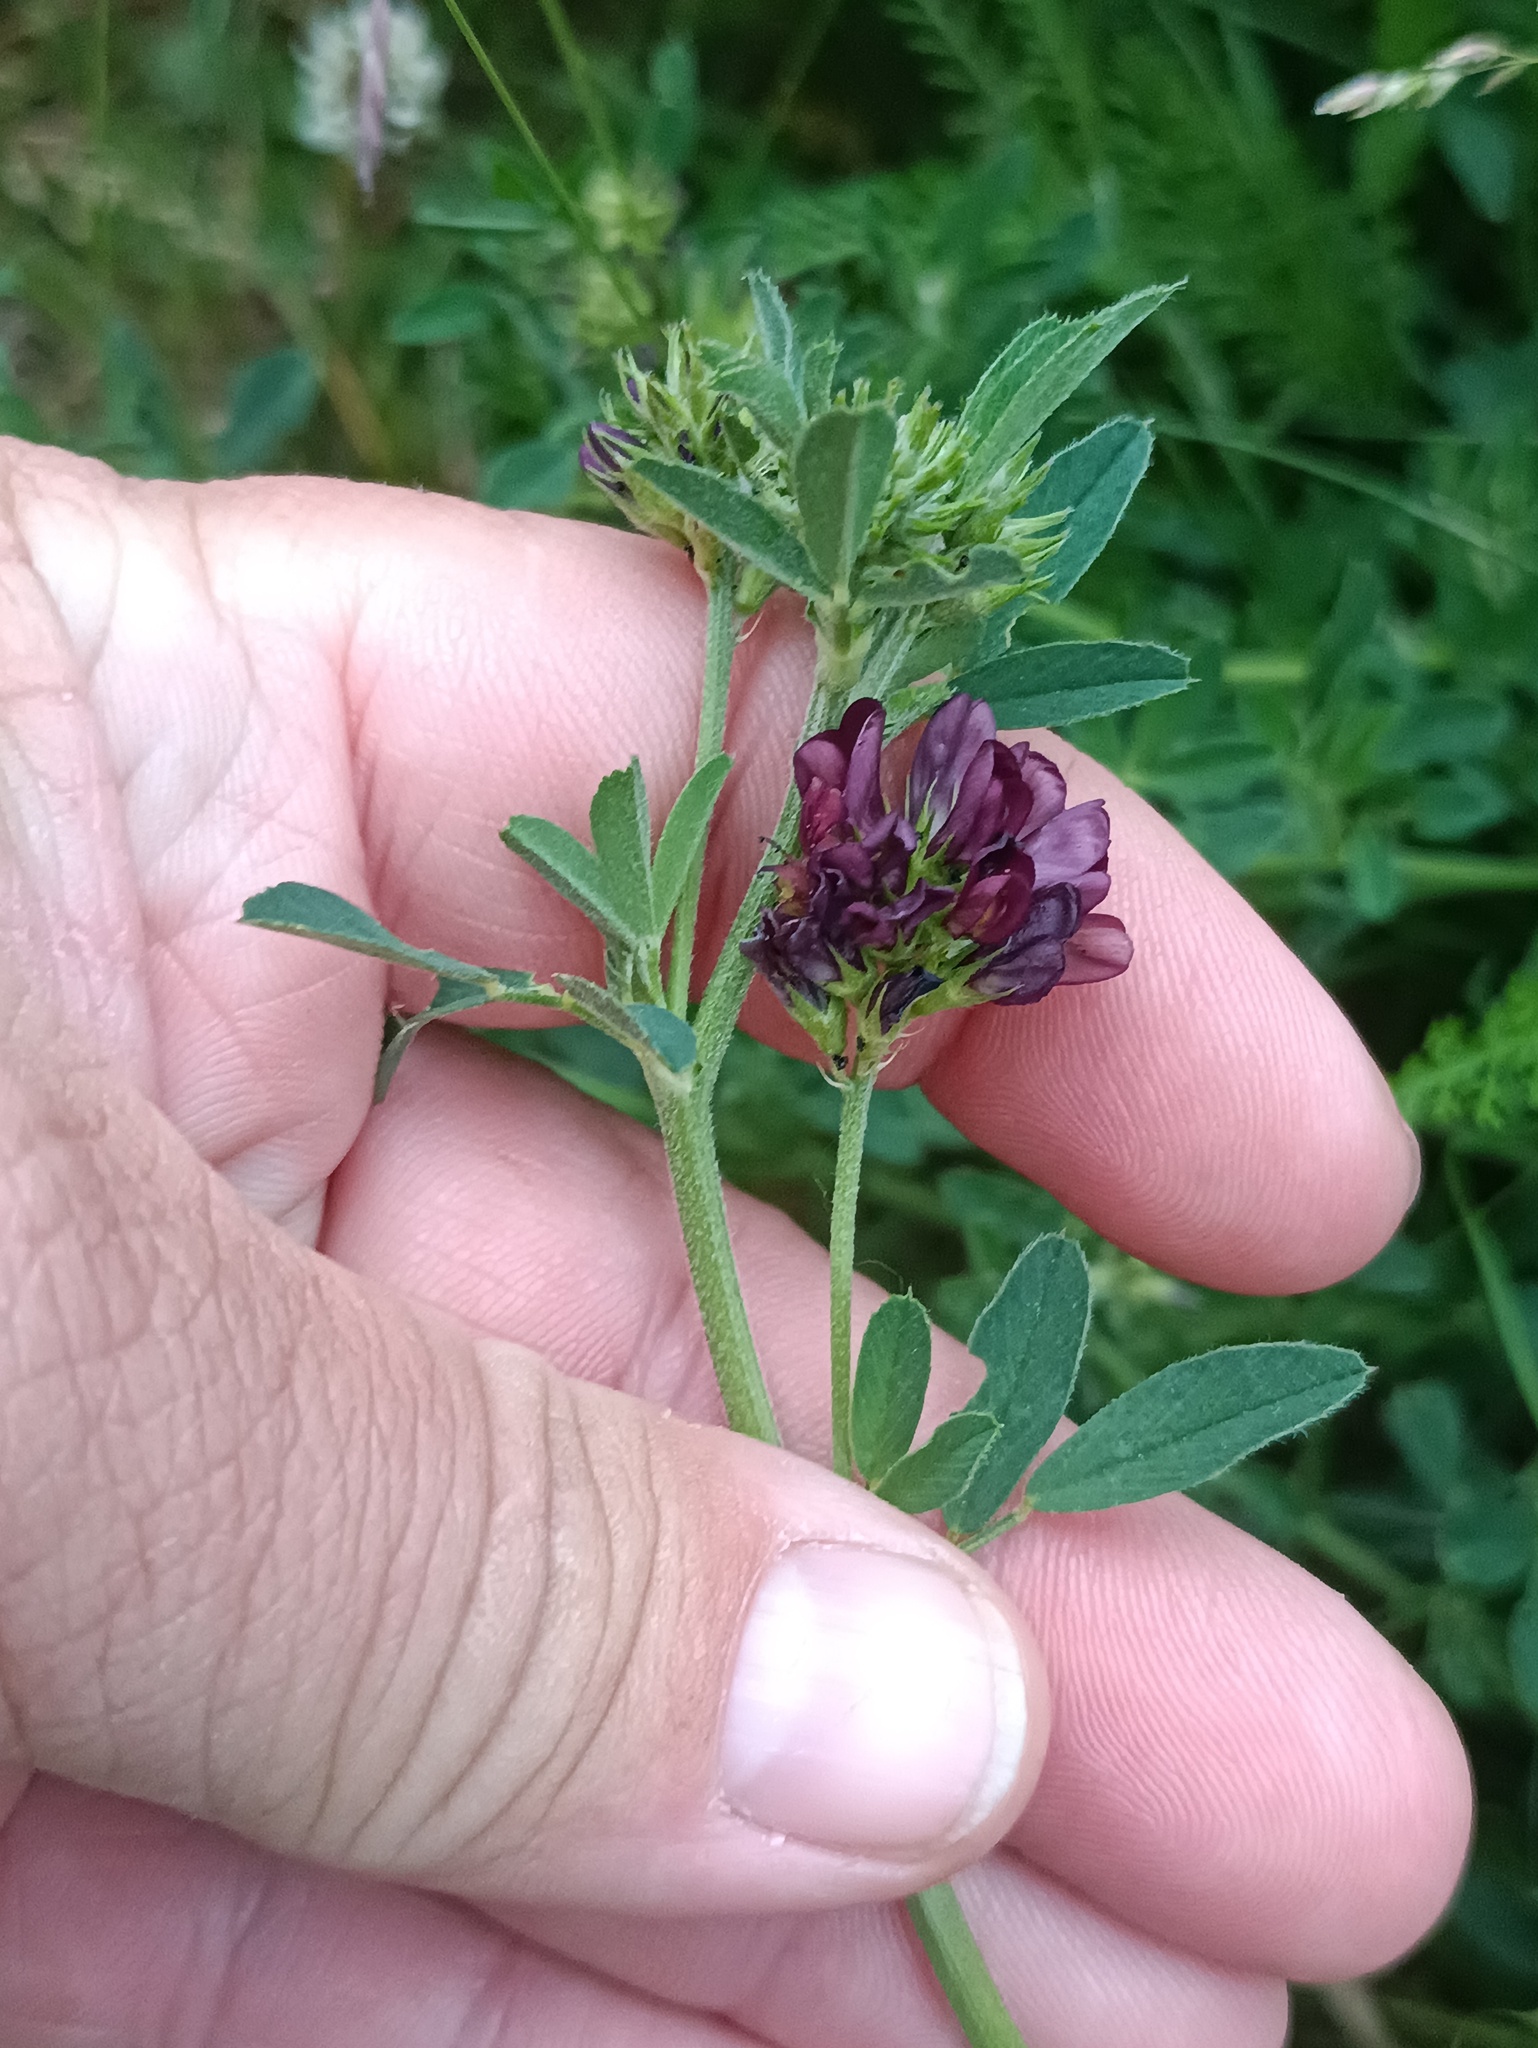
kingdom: Plantae
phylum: Tracheophyta
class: Magnoliopsida
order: Fabales
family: Fabaceae
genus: Medicago
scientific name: Medicago sativa
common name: Alfalfa
